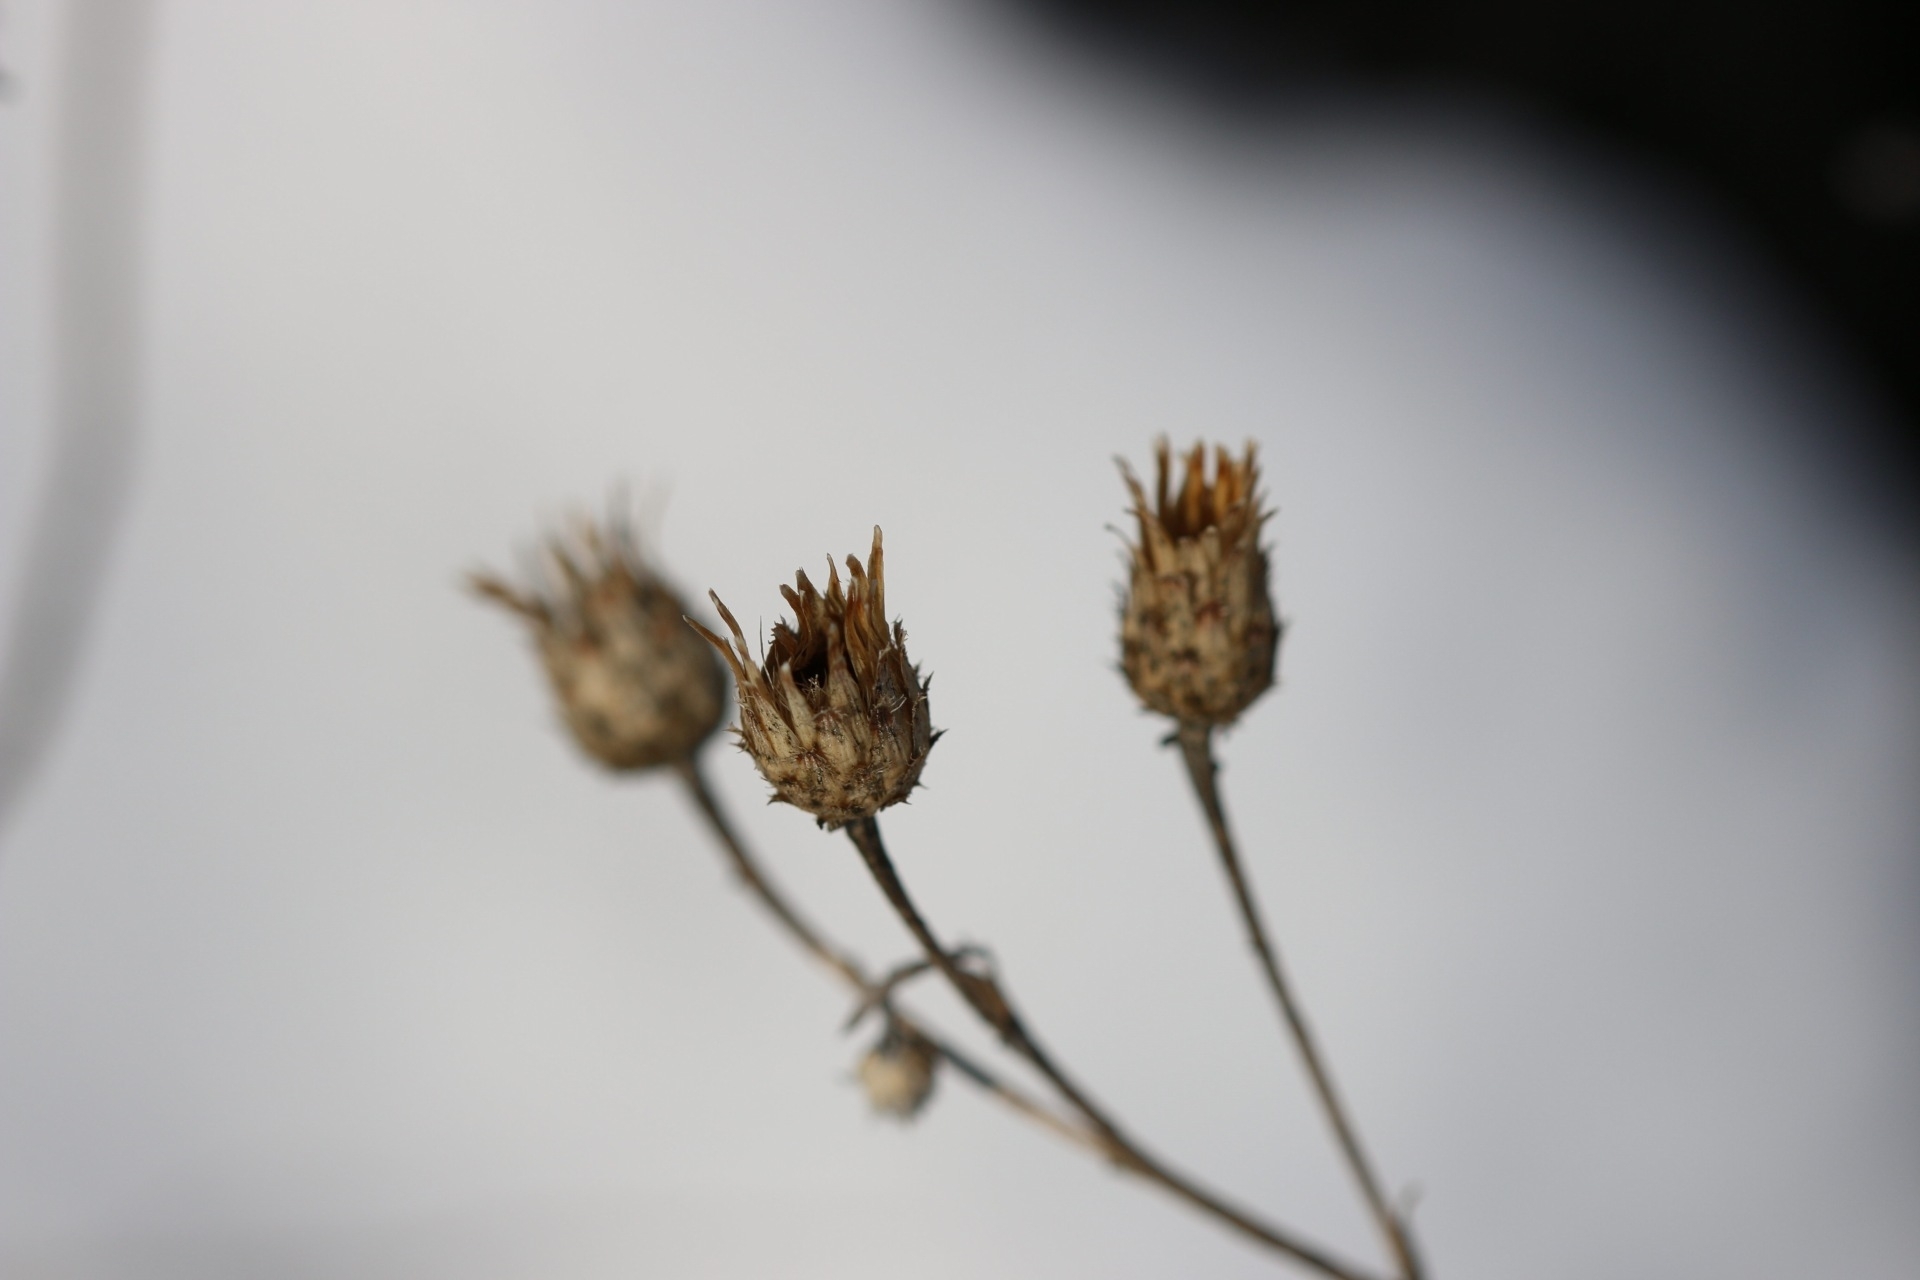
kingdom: Plantae
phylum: Tracheophyta
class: Magnoliopsida
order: Asterales
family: Asteraceae
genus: Centaurea
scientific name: Centaurea stoebe
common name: Spotted knapweed
